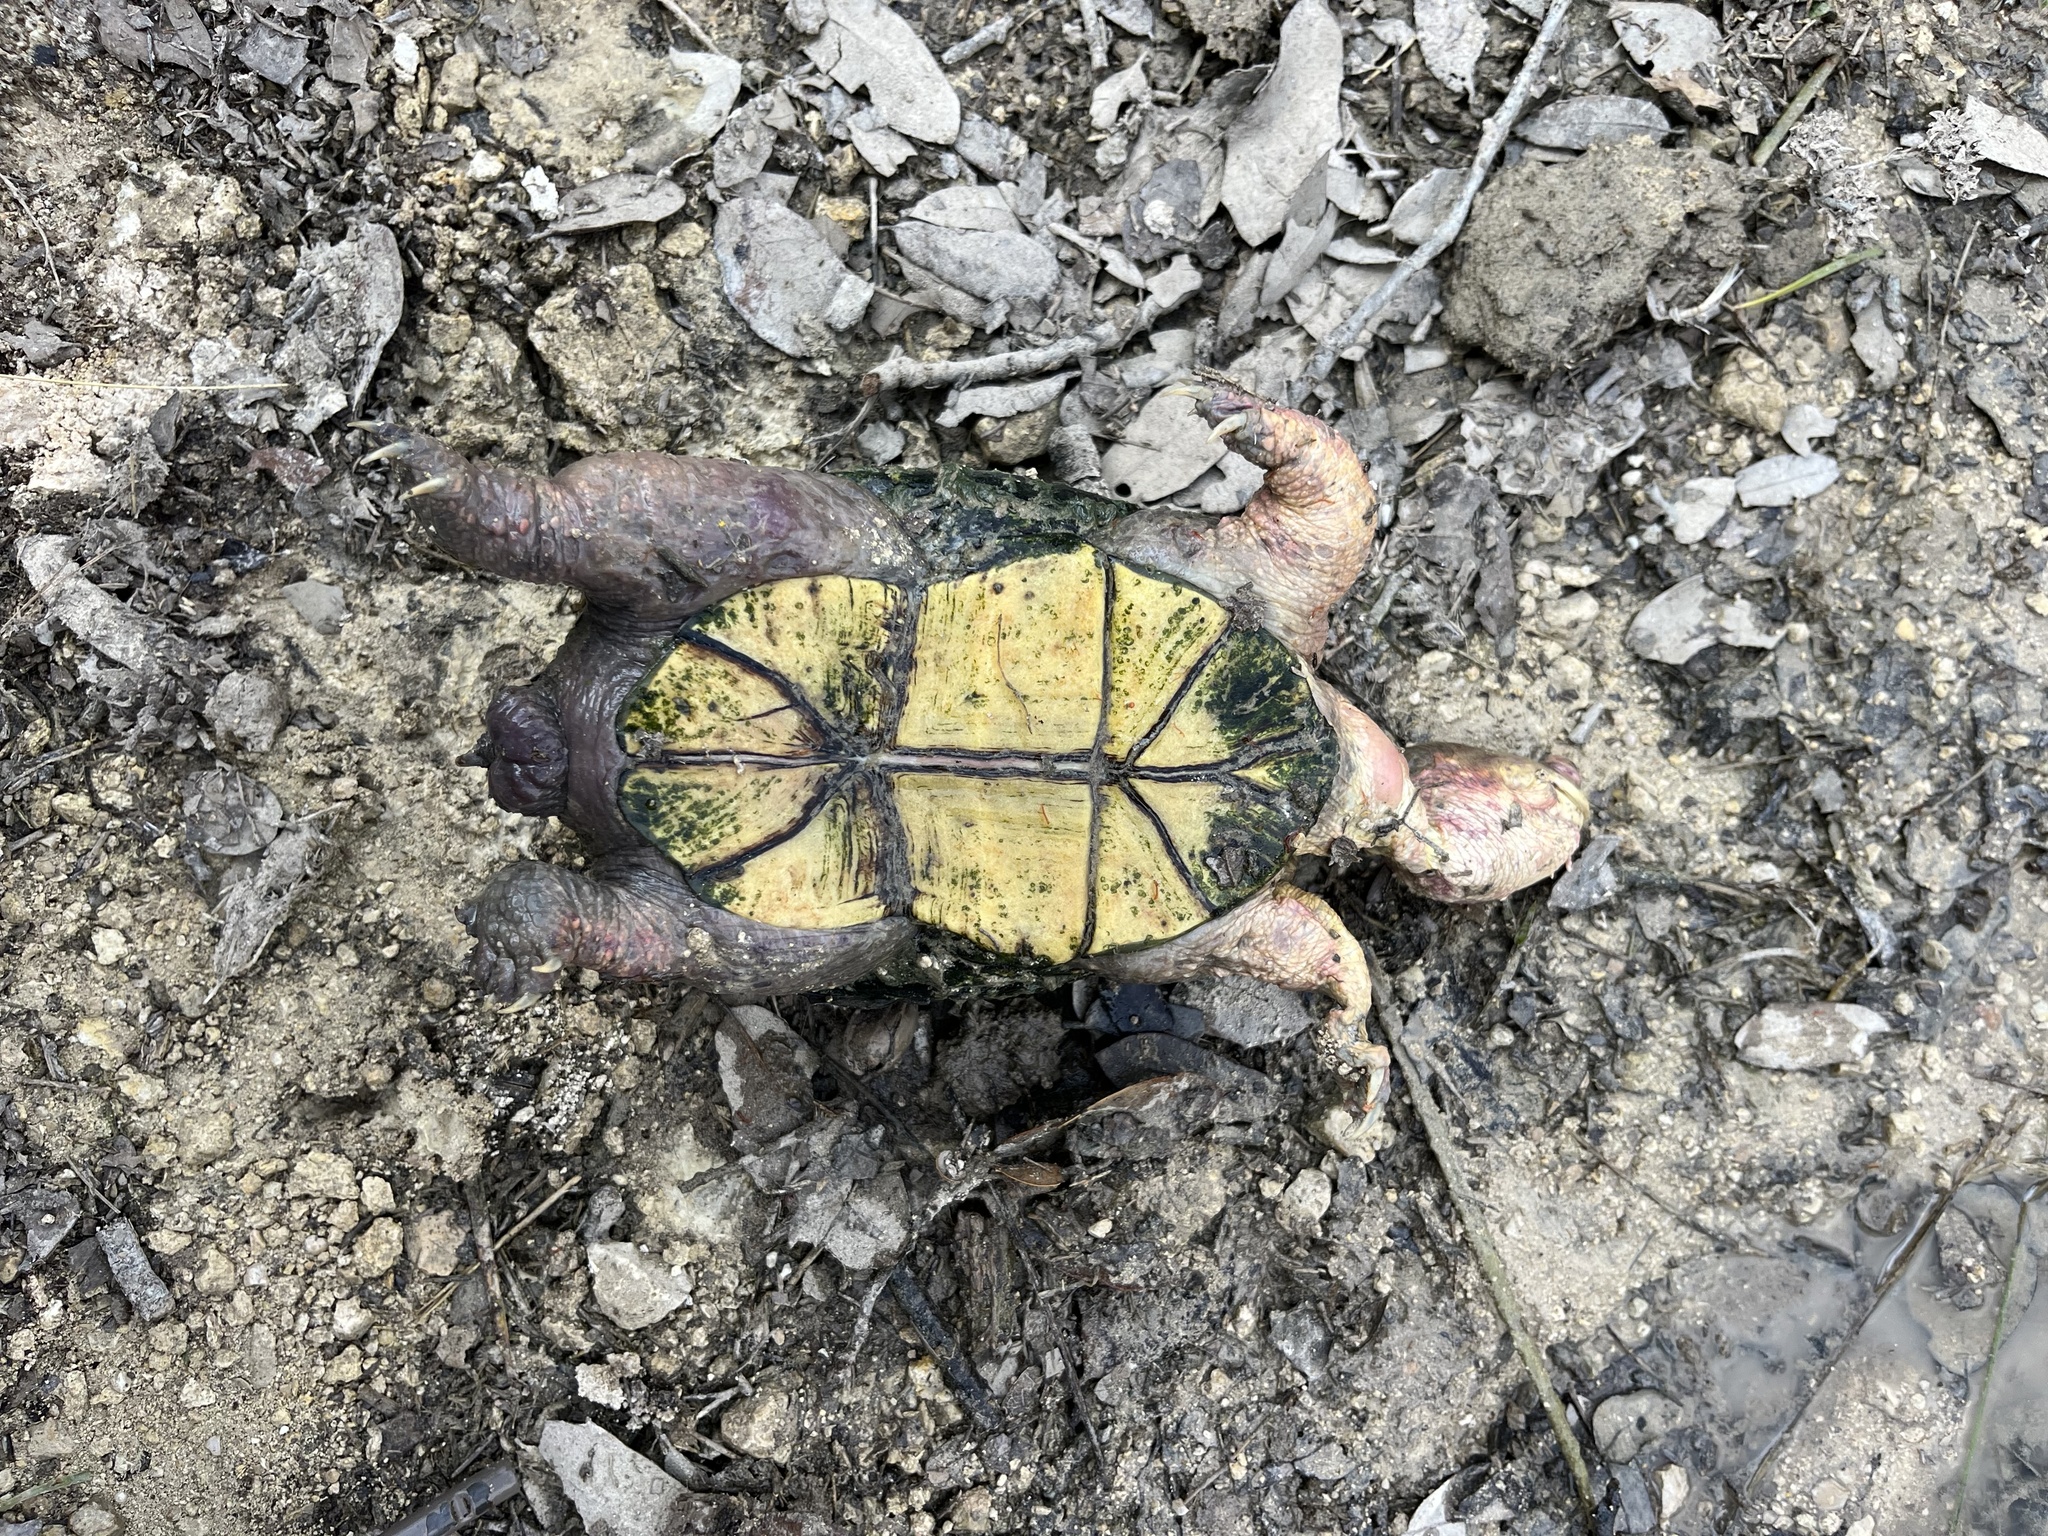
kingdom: Animalia
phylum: Chordata
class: Testudines
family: Kinosternidae
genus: Kinosternon
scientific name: Kinosternon flavescens
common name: Yellow mud turtle
